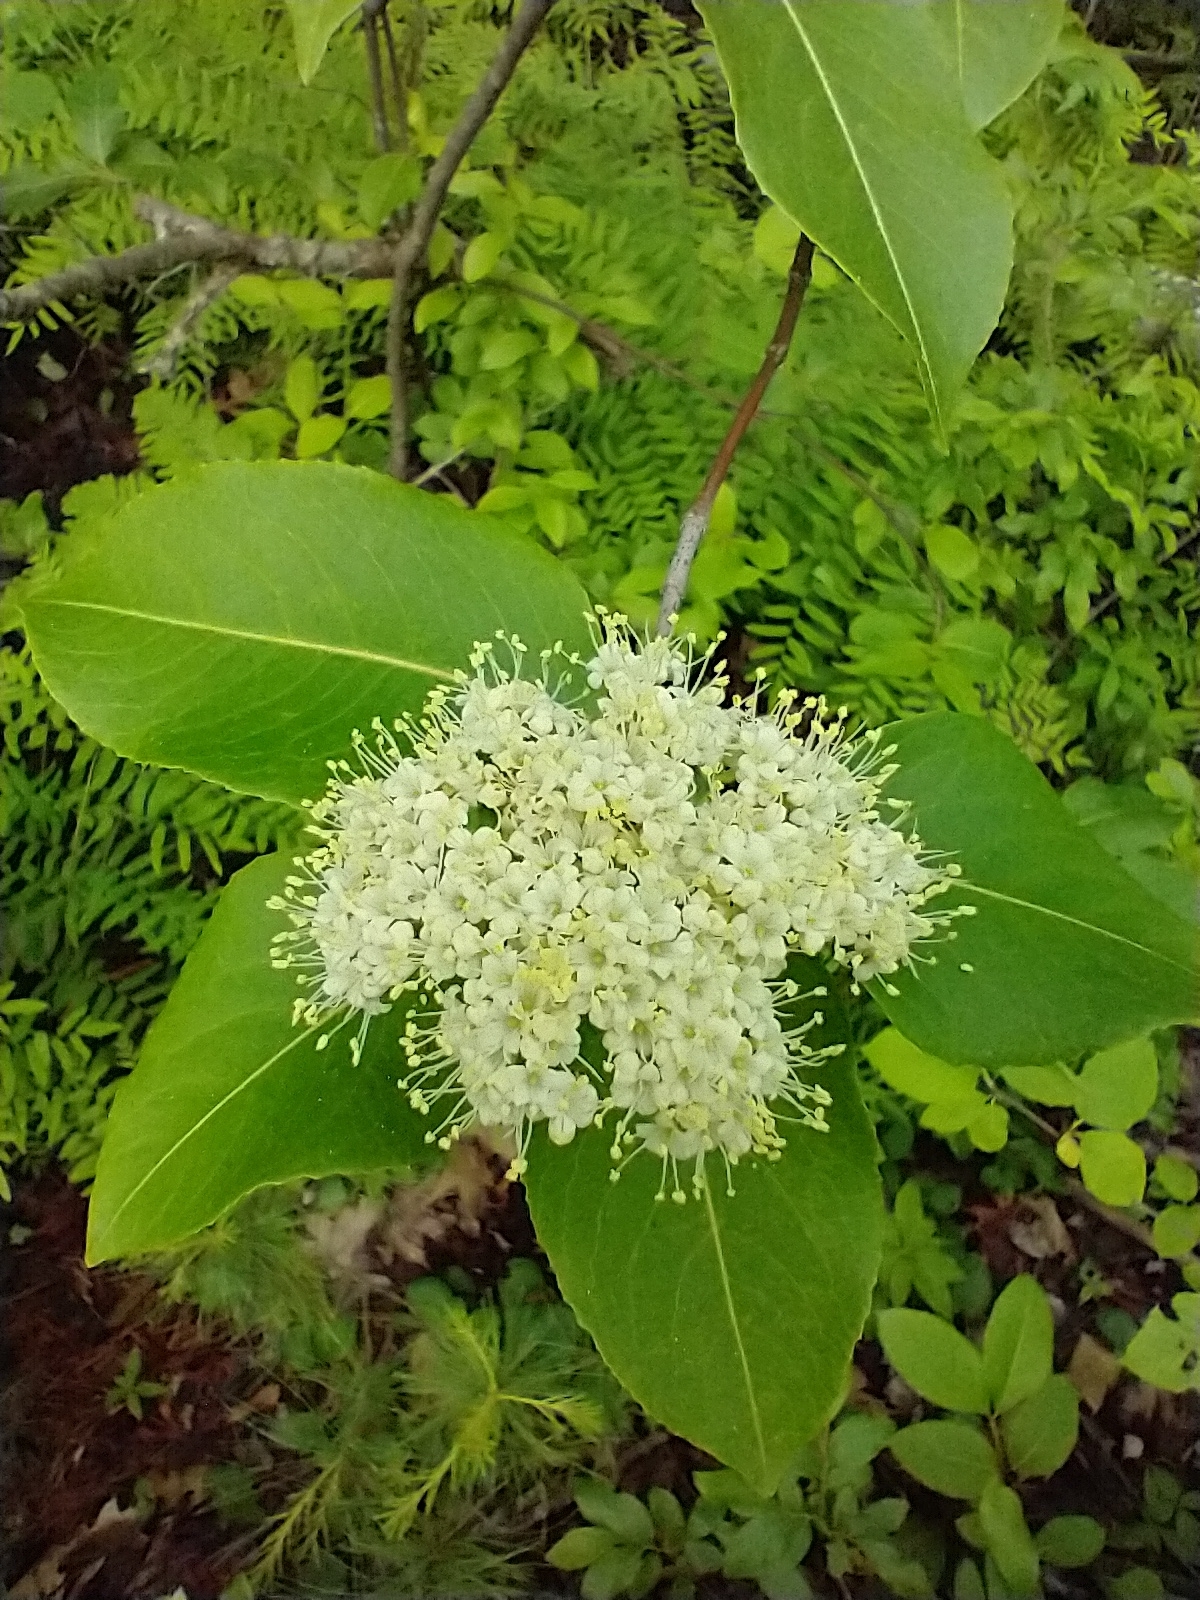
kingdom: Plantae
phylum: Tracheophyta
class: Magnoliopsida
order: Dipsacales
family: Viburnaceae
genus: Viburnum
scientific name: Viburnum cassinoides
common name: Swamp haw
